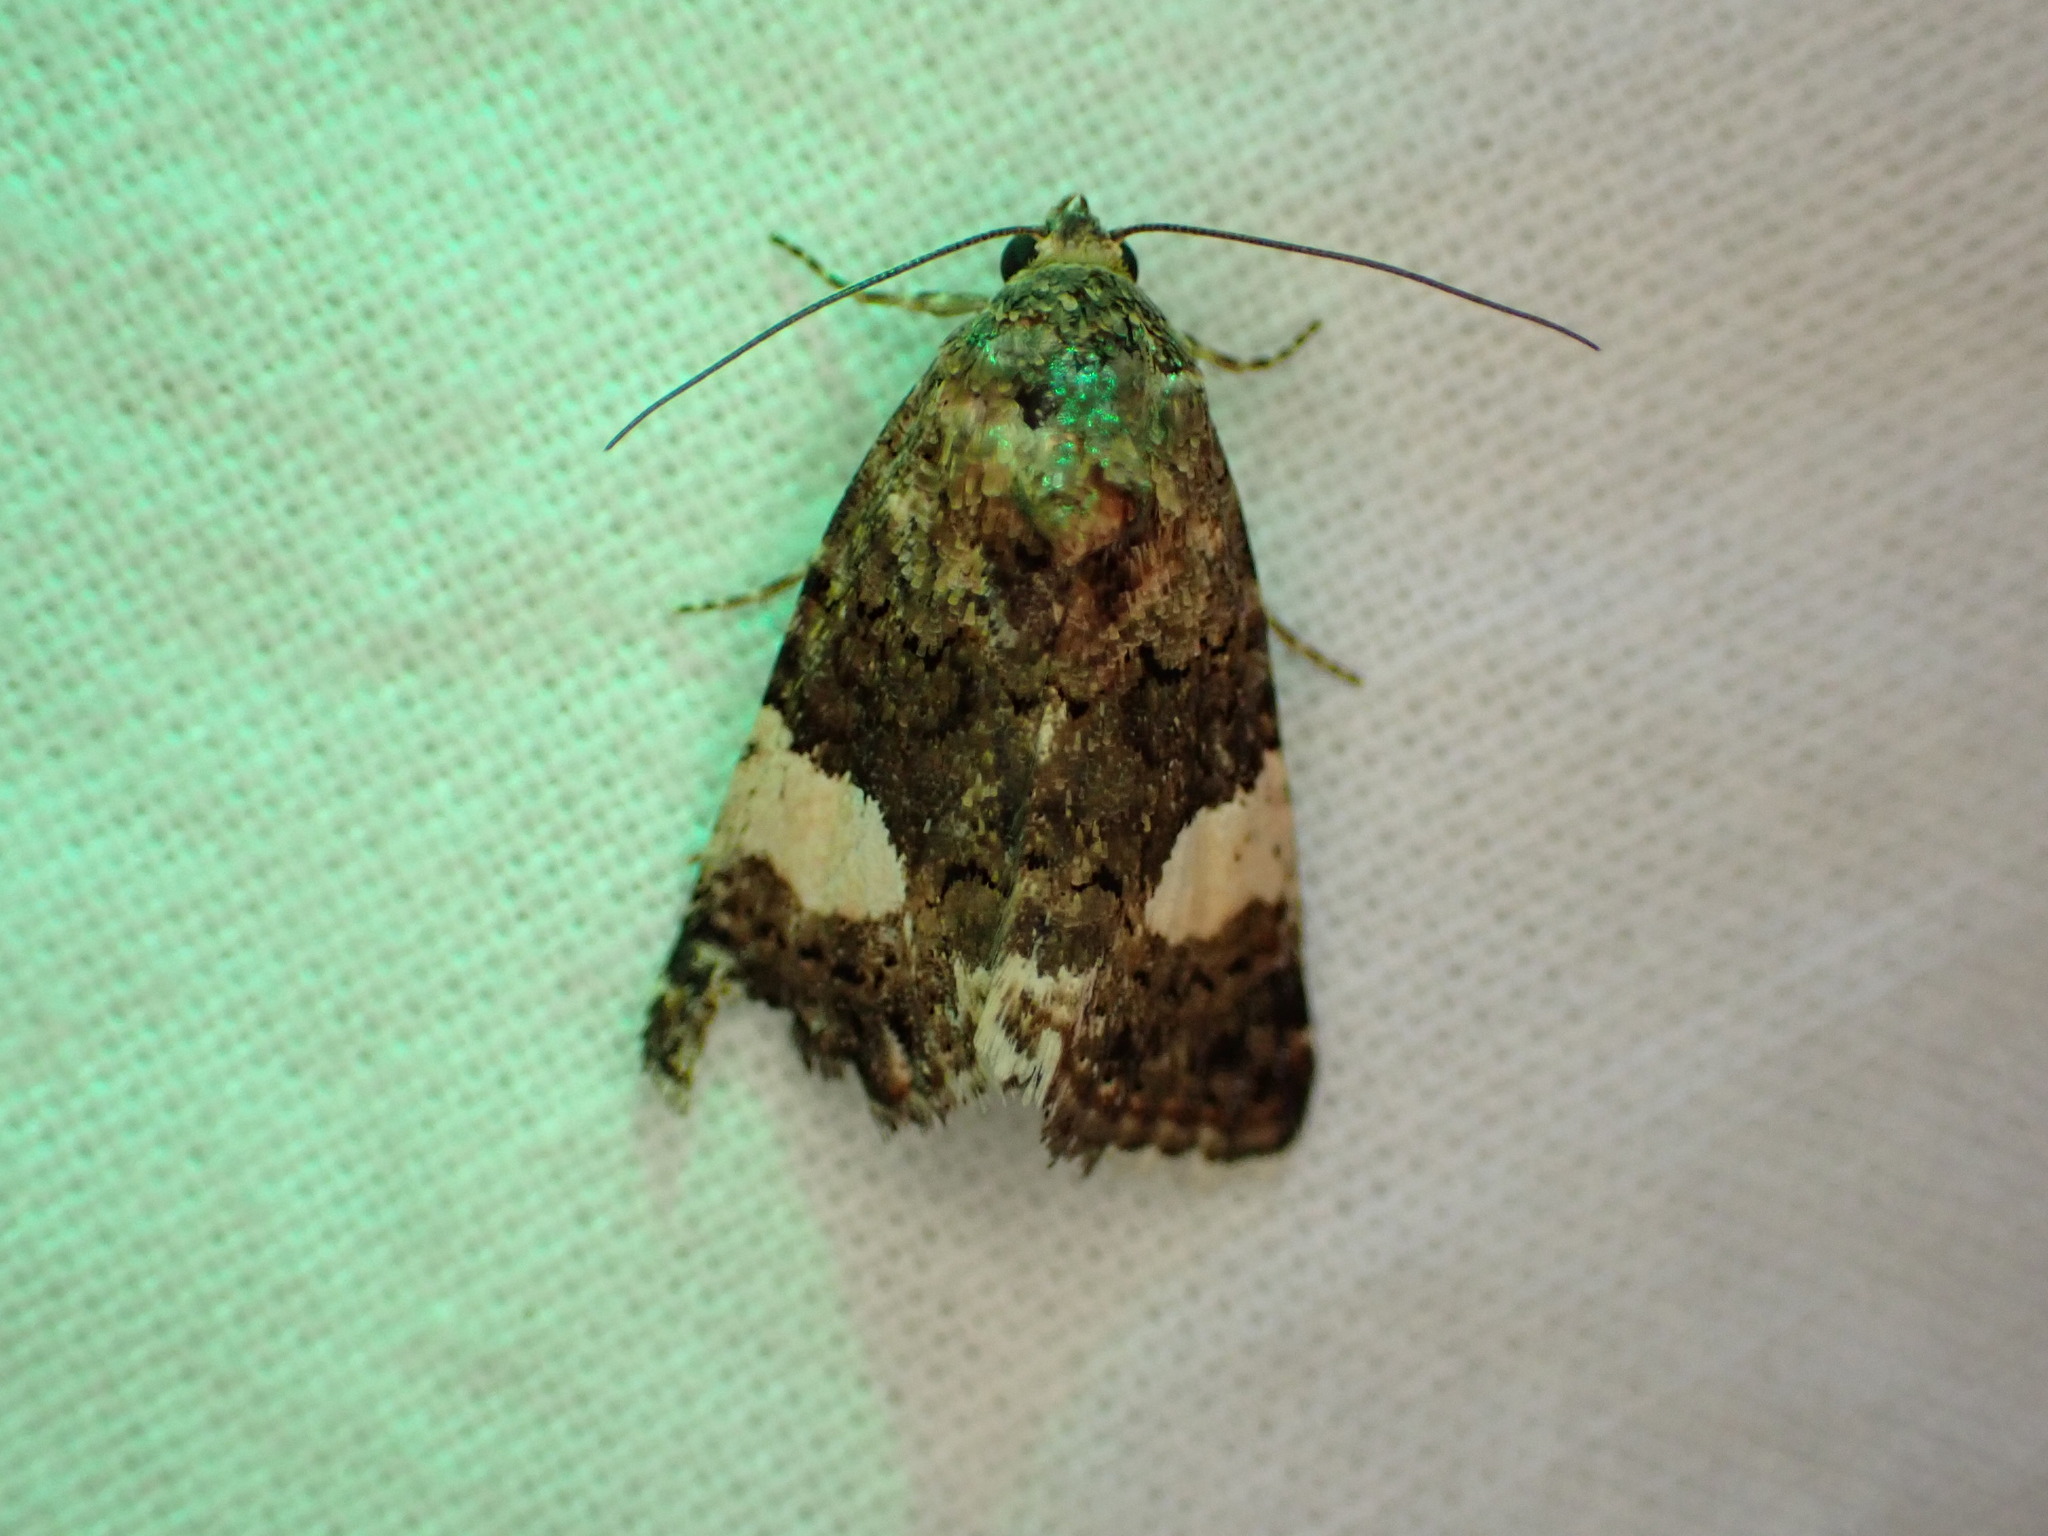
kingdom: Animalia
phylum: Arthropoda
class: Insecta
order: Lepidoptera
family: Erebidae
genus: Tyta
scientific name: Tyta luctuosa
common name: Four-spotted
